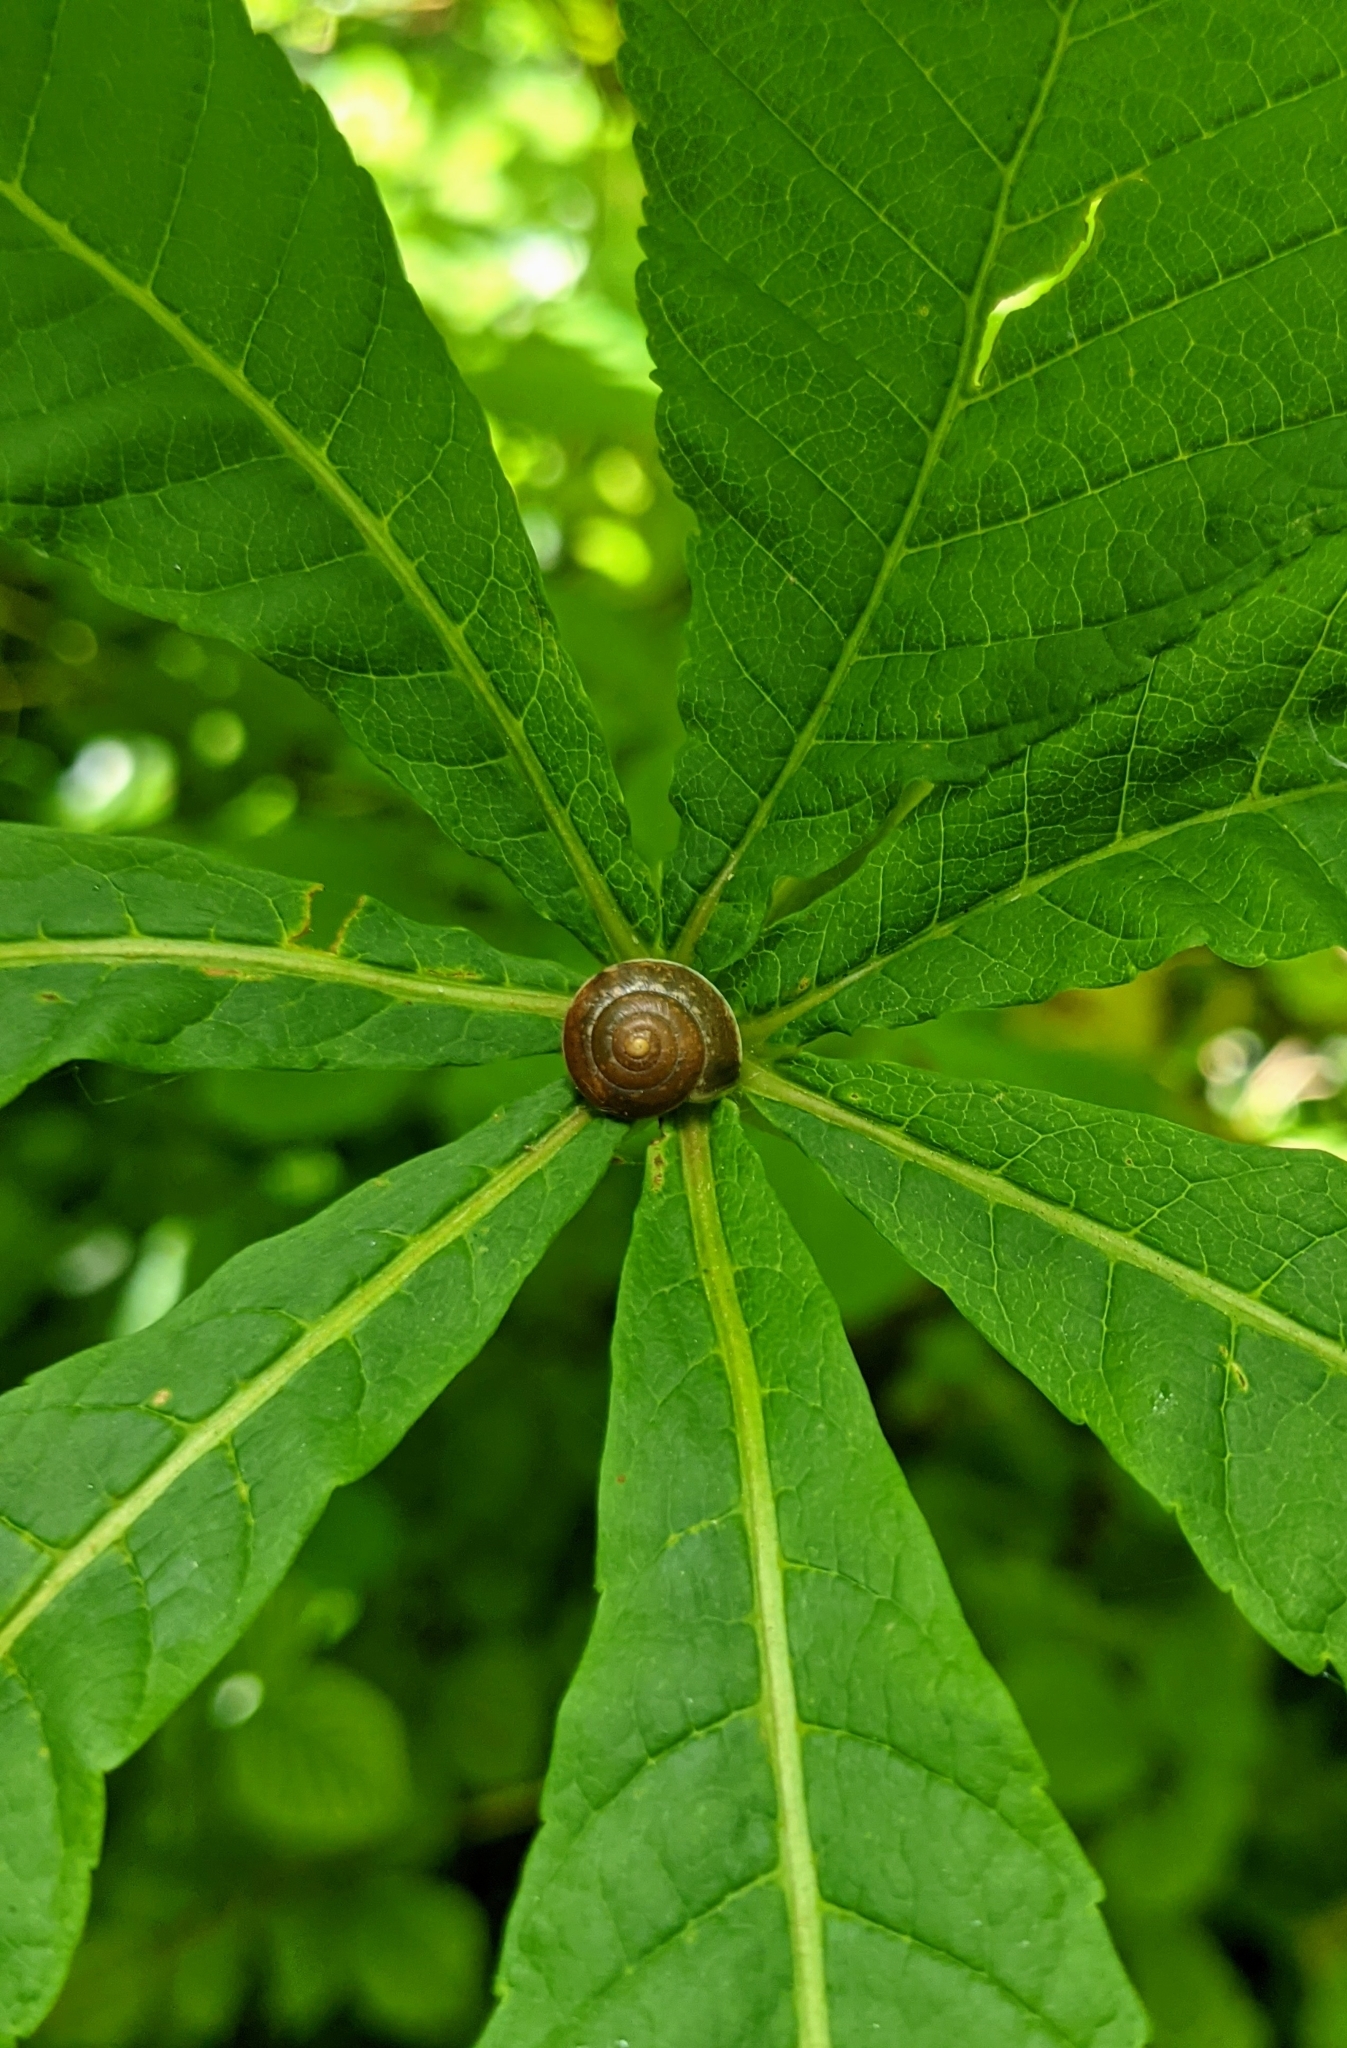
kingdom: Animalia
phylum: Mollusca
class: Gastropoda
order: Stylommatophora
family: Hygromiidae
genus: Hygromia
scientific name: Hygromia cinctella
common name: Girdled snail
